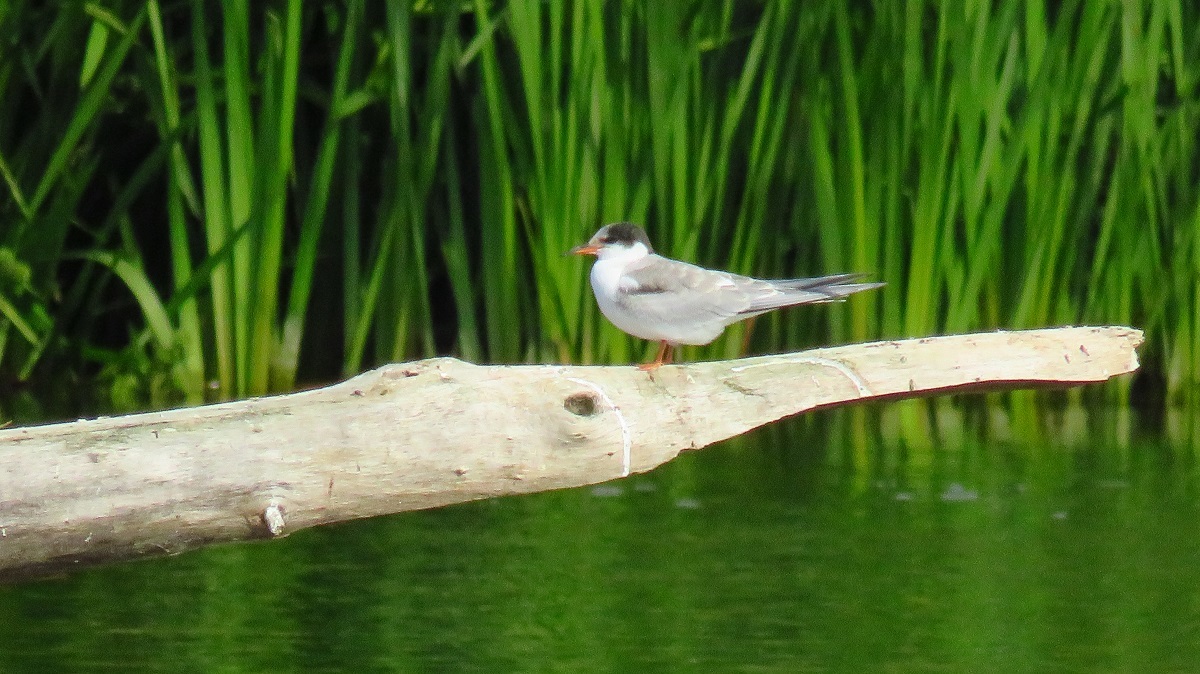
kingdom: Animalia
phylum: Chordata
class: Aves
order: Charadriiformes
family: Laridae
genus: Sterna
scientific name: Sterna hirundo
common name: Common tern
